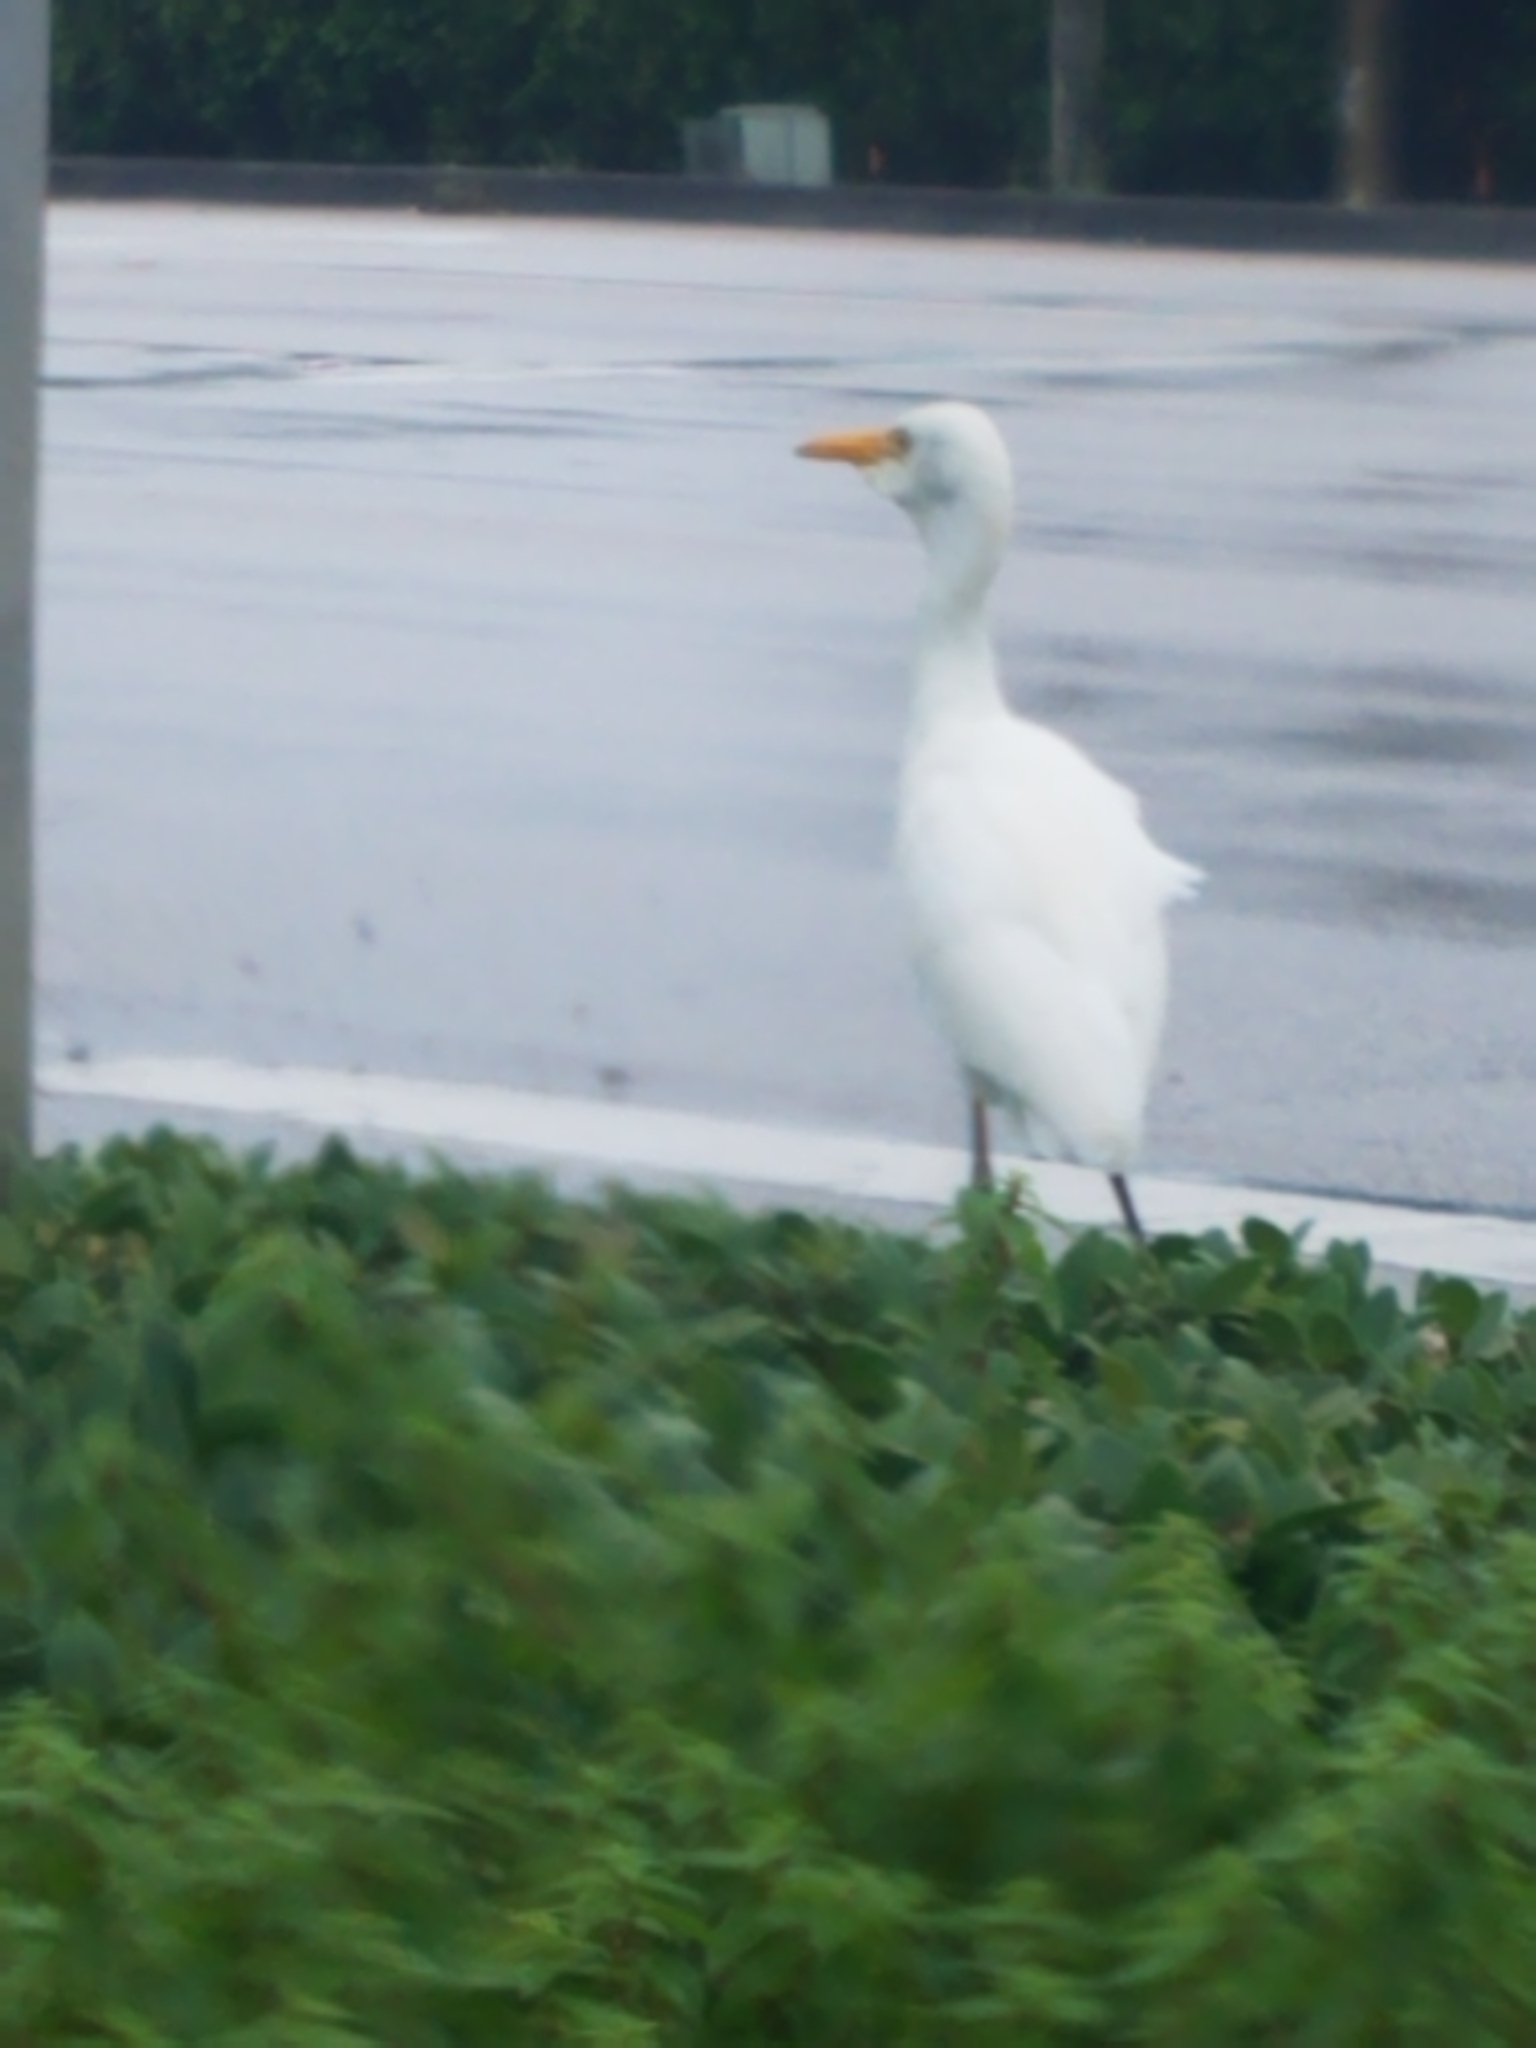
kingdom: Animalia
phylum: Chordata
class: Aves
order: Pelecaniformes
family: Ardeidae
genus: Bubulcus
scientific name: Bubulcus ibis
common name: Cattle egret
